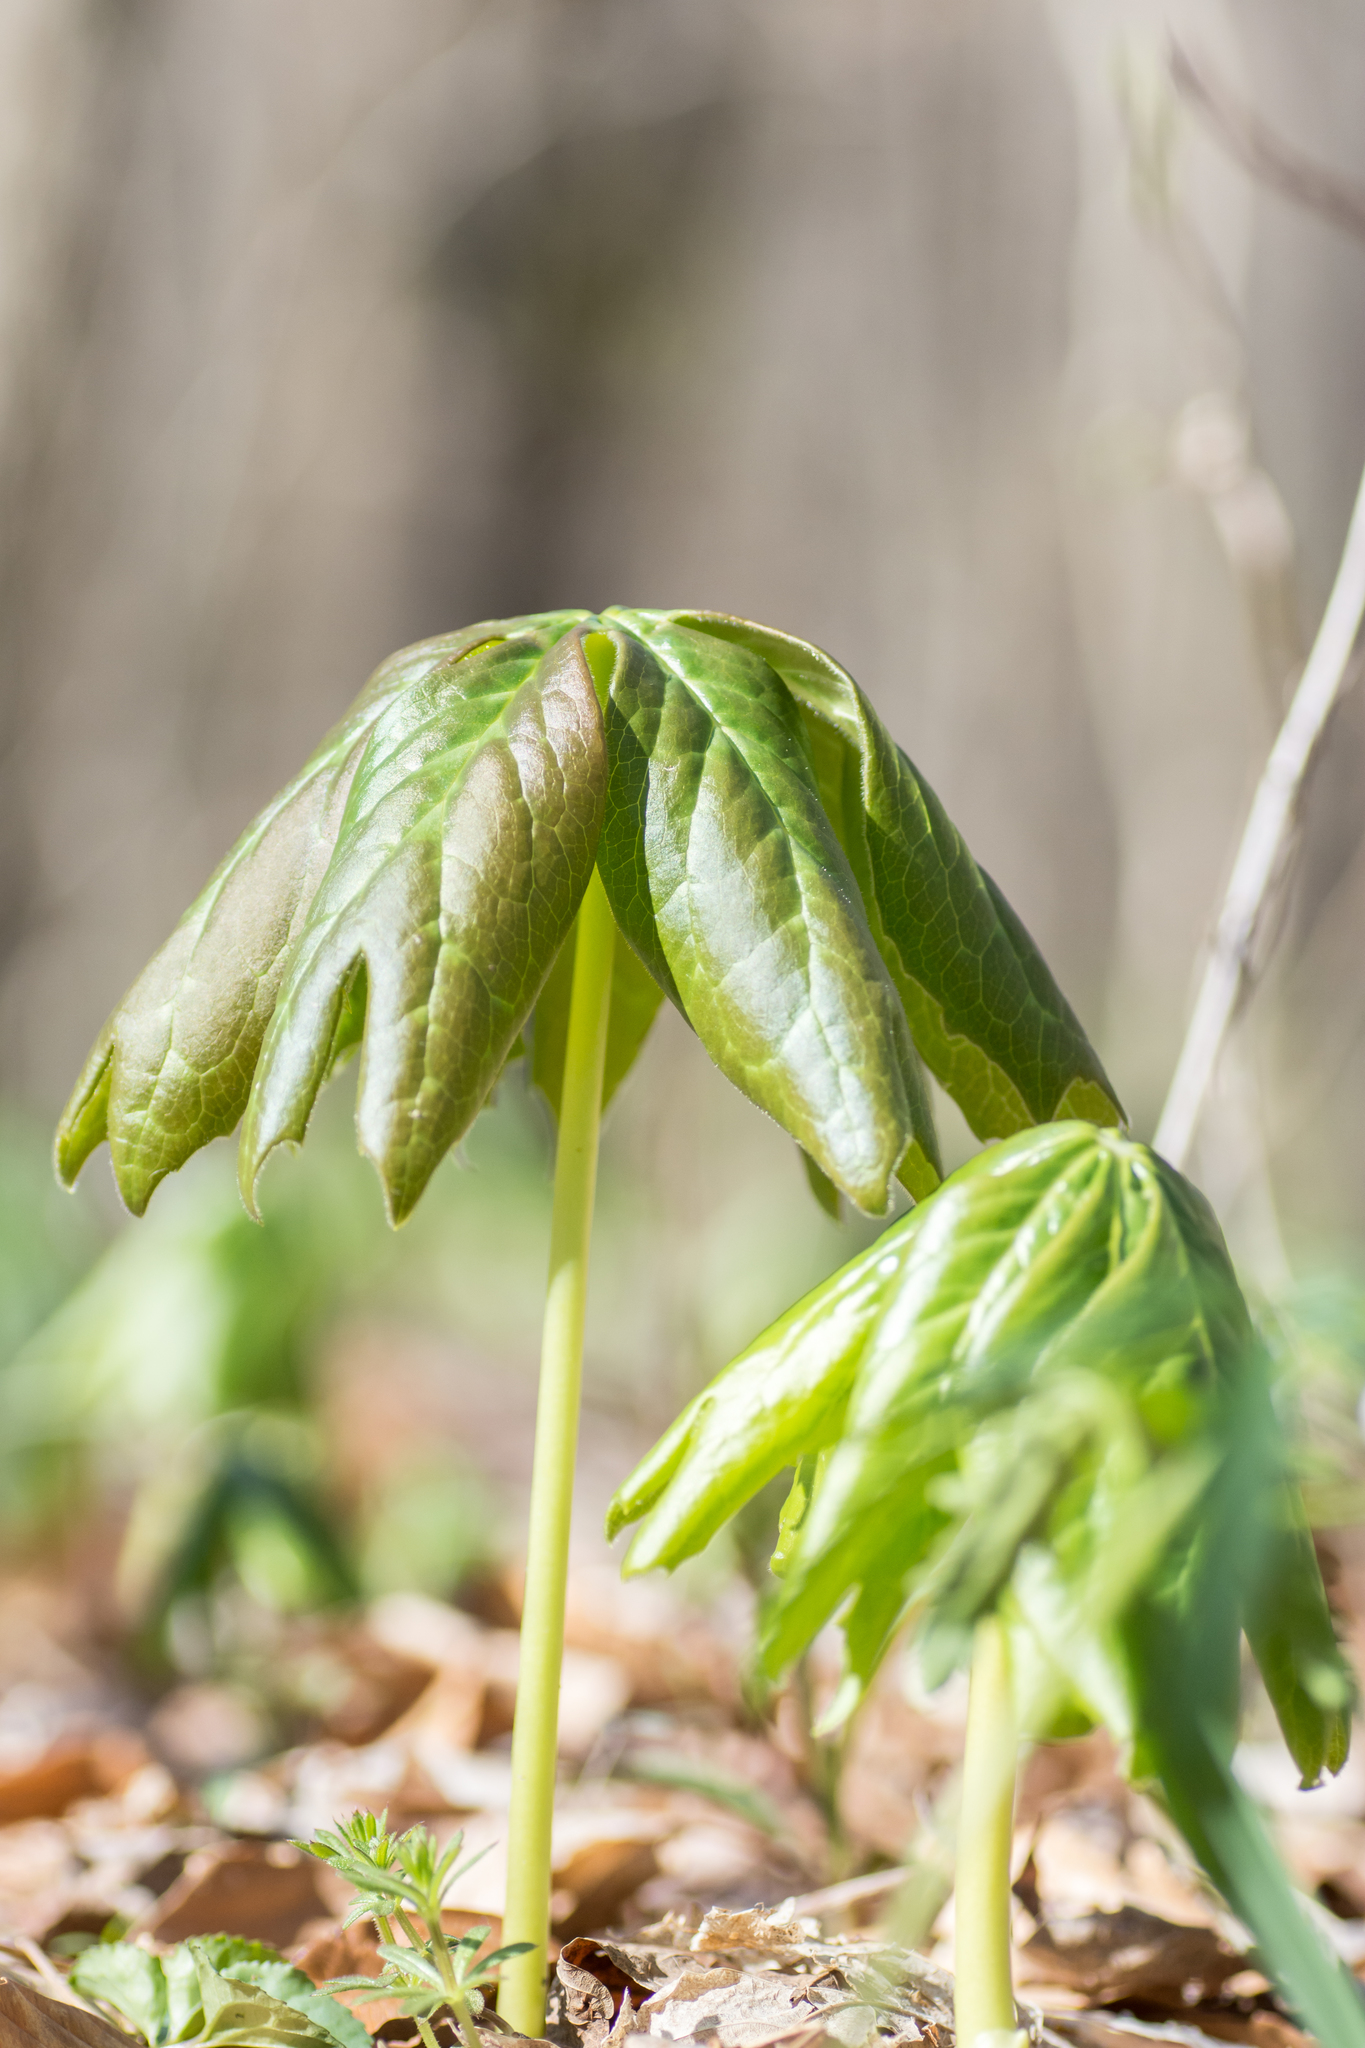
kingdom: Plantae
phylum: Tracheophyta
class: Magnoliopsida
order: Ranunculales
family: Berberidaceae
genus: Podophyllum
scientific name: Podophyllum peltatum
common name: Wild mandrake
